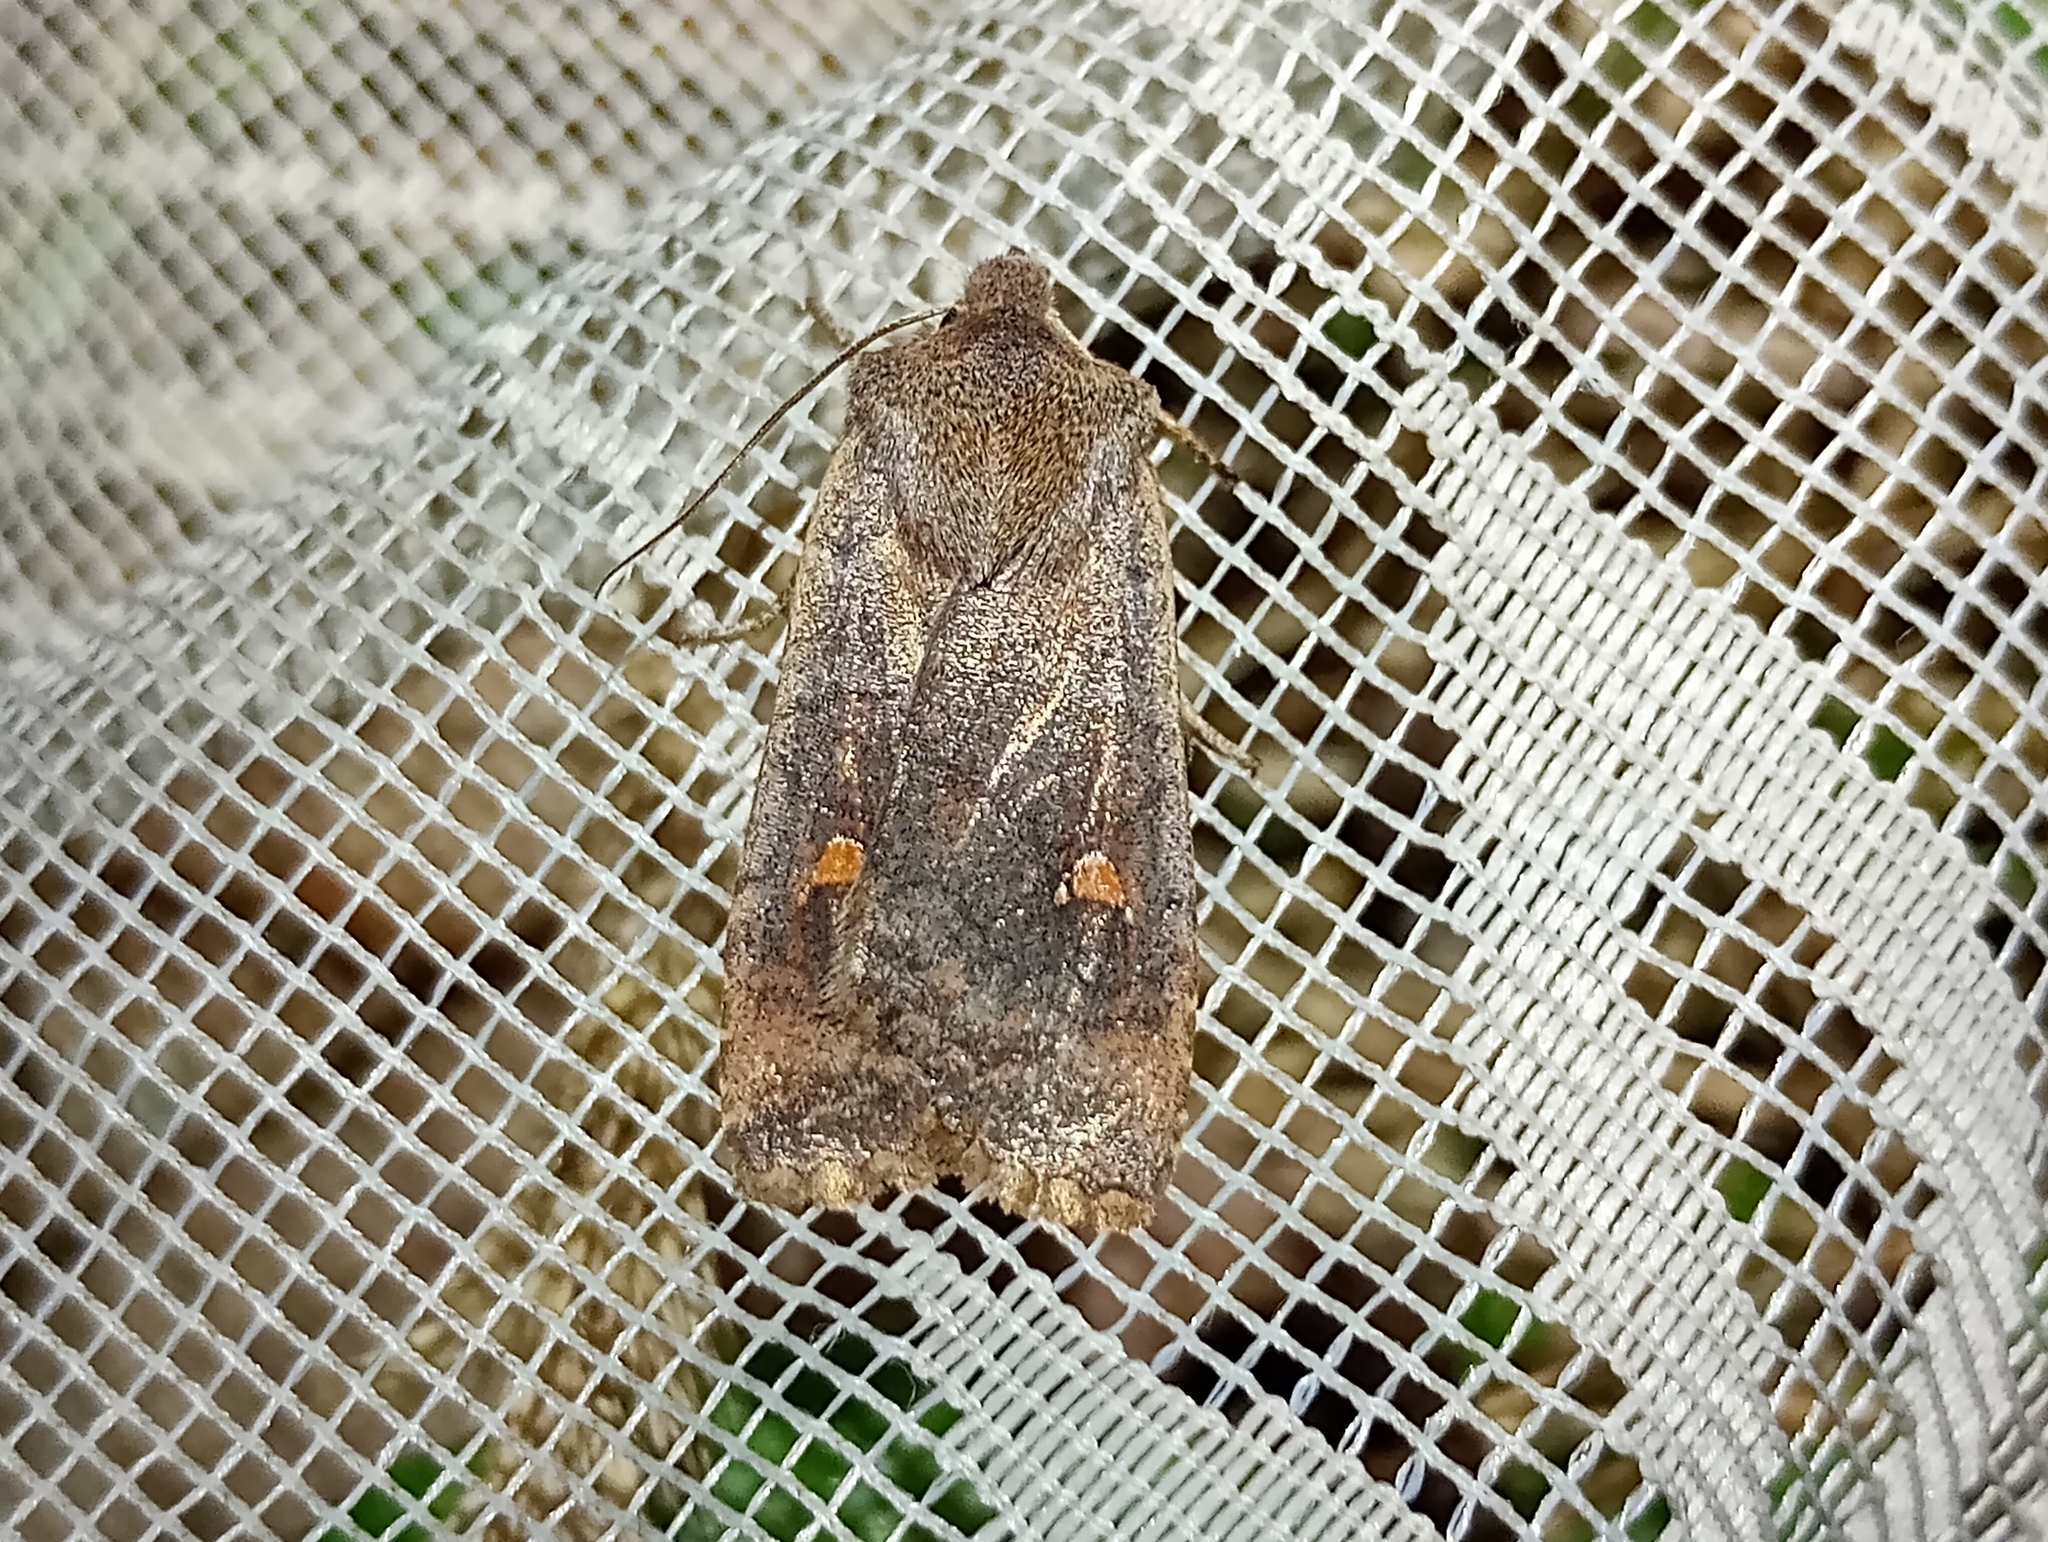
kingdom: Animalia
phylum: Arthropoda
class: Insecta
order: Lepidoptera
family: Noctuidae
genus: Eupsilia
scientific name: Eupsilia transversa
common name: Satellite
